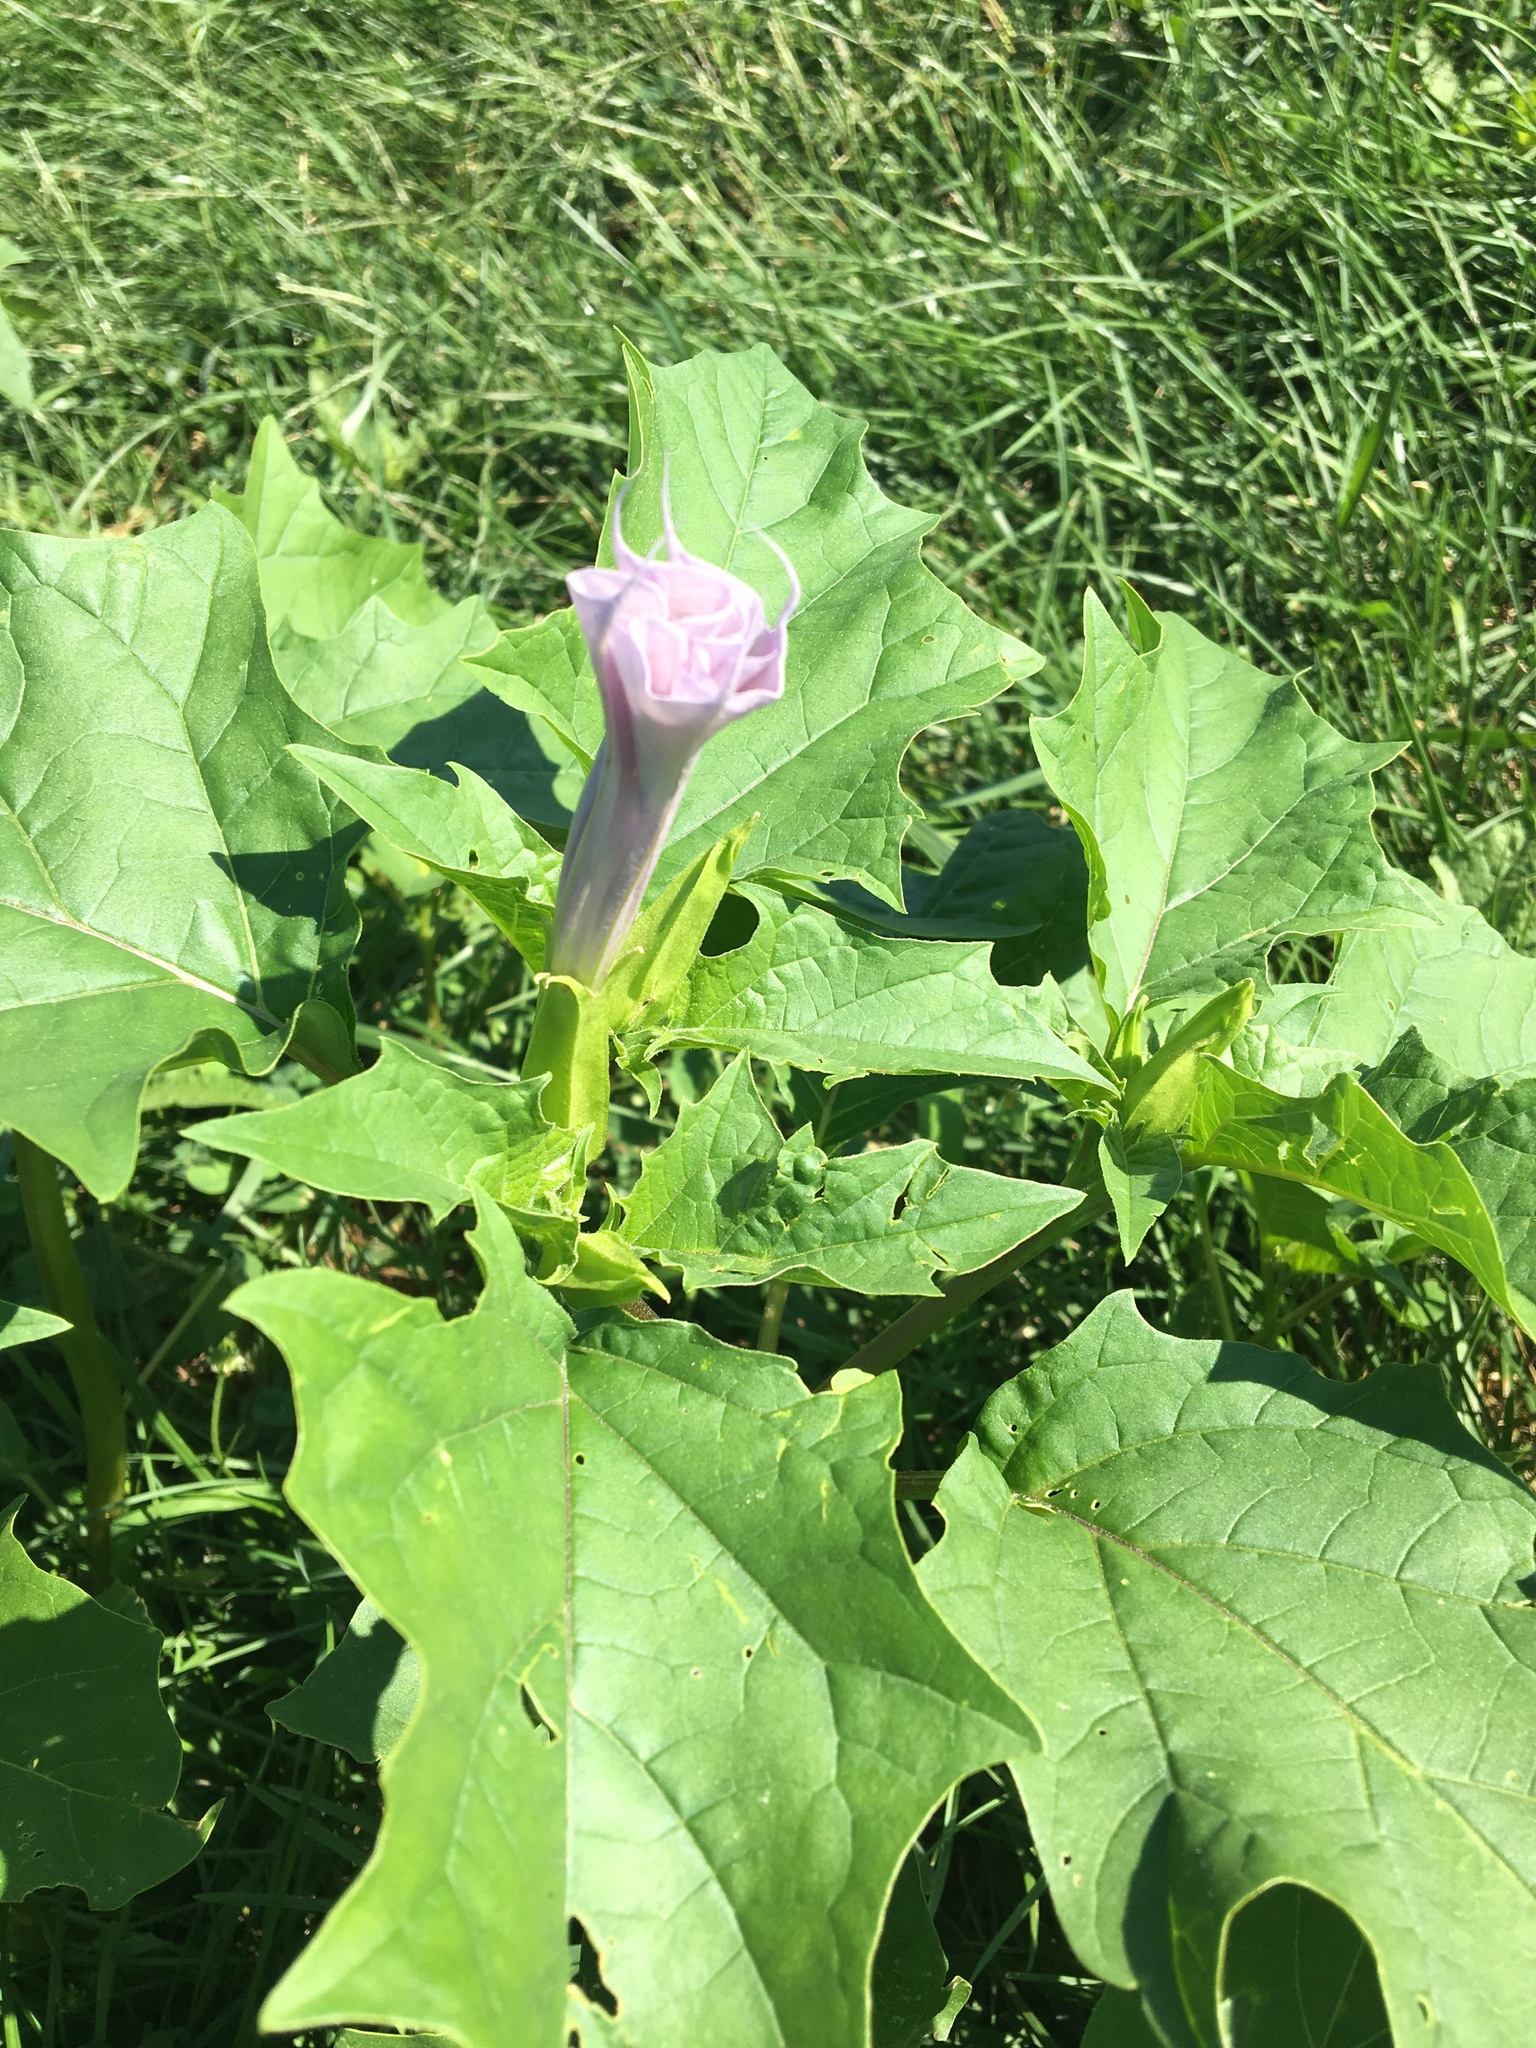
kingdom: Plantae
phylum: Tracheophyta
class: Magnoliopsida
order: Solanales
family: Solanaceae
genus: Datura
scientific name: Datura stramonium
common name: Thorn-apple
